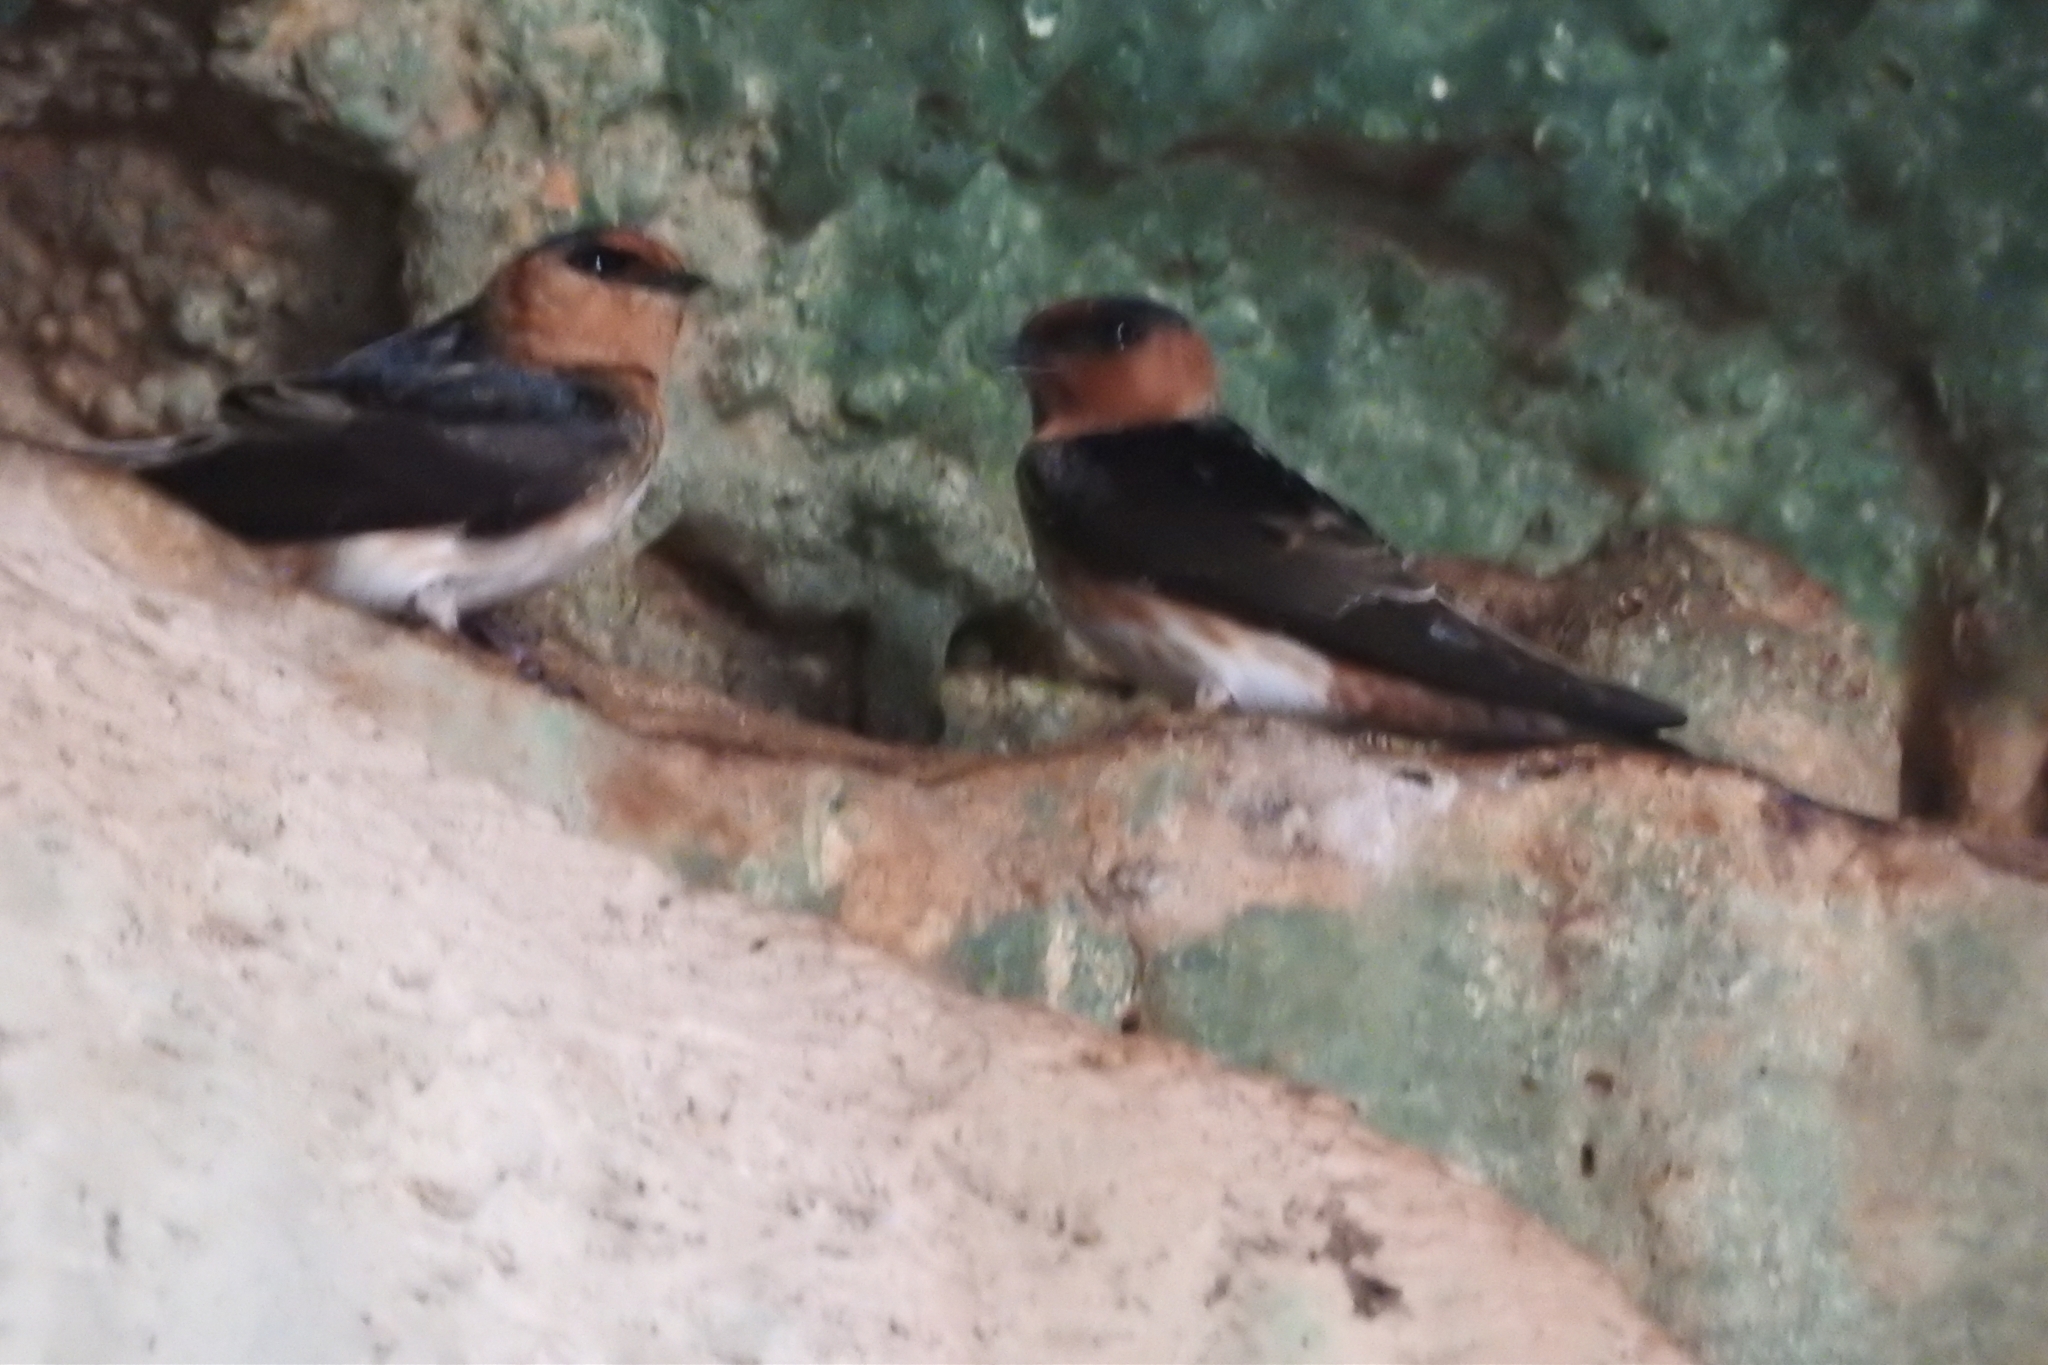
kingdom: Animalia
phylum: Chordata
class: Aves
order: Passeriformes
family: Hirundinidae
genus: Petrochelidon
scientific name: Petrochelidon fulva
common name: Cave swallow
